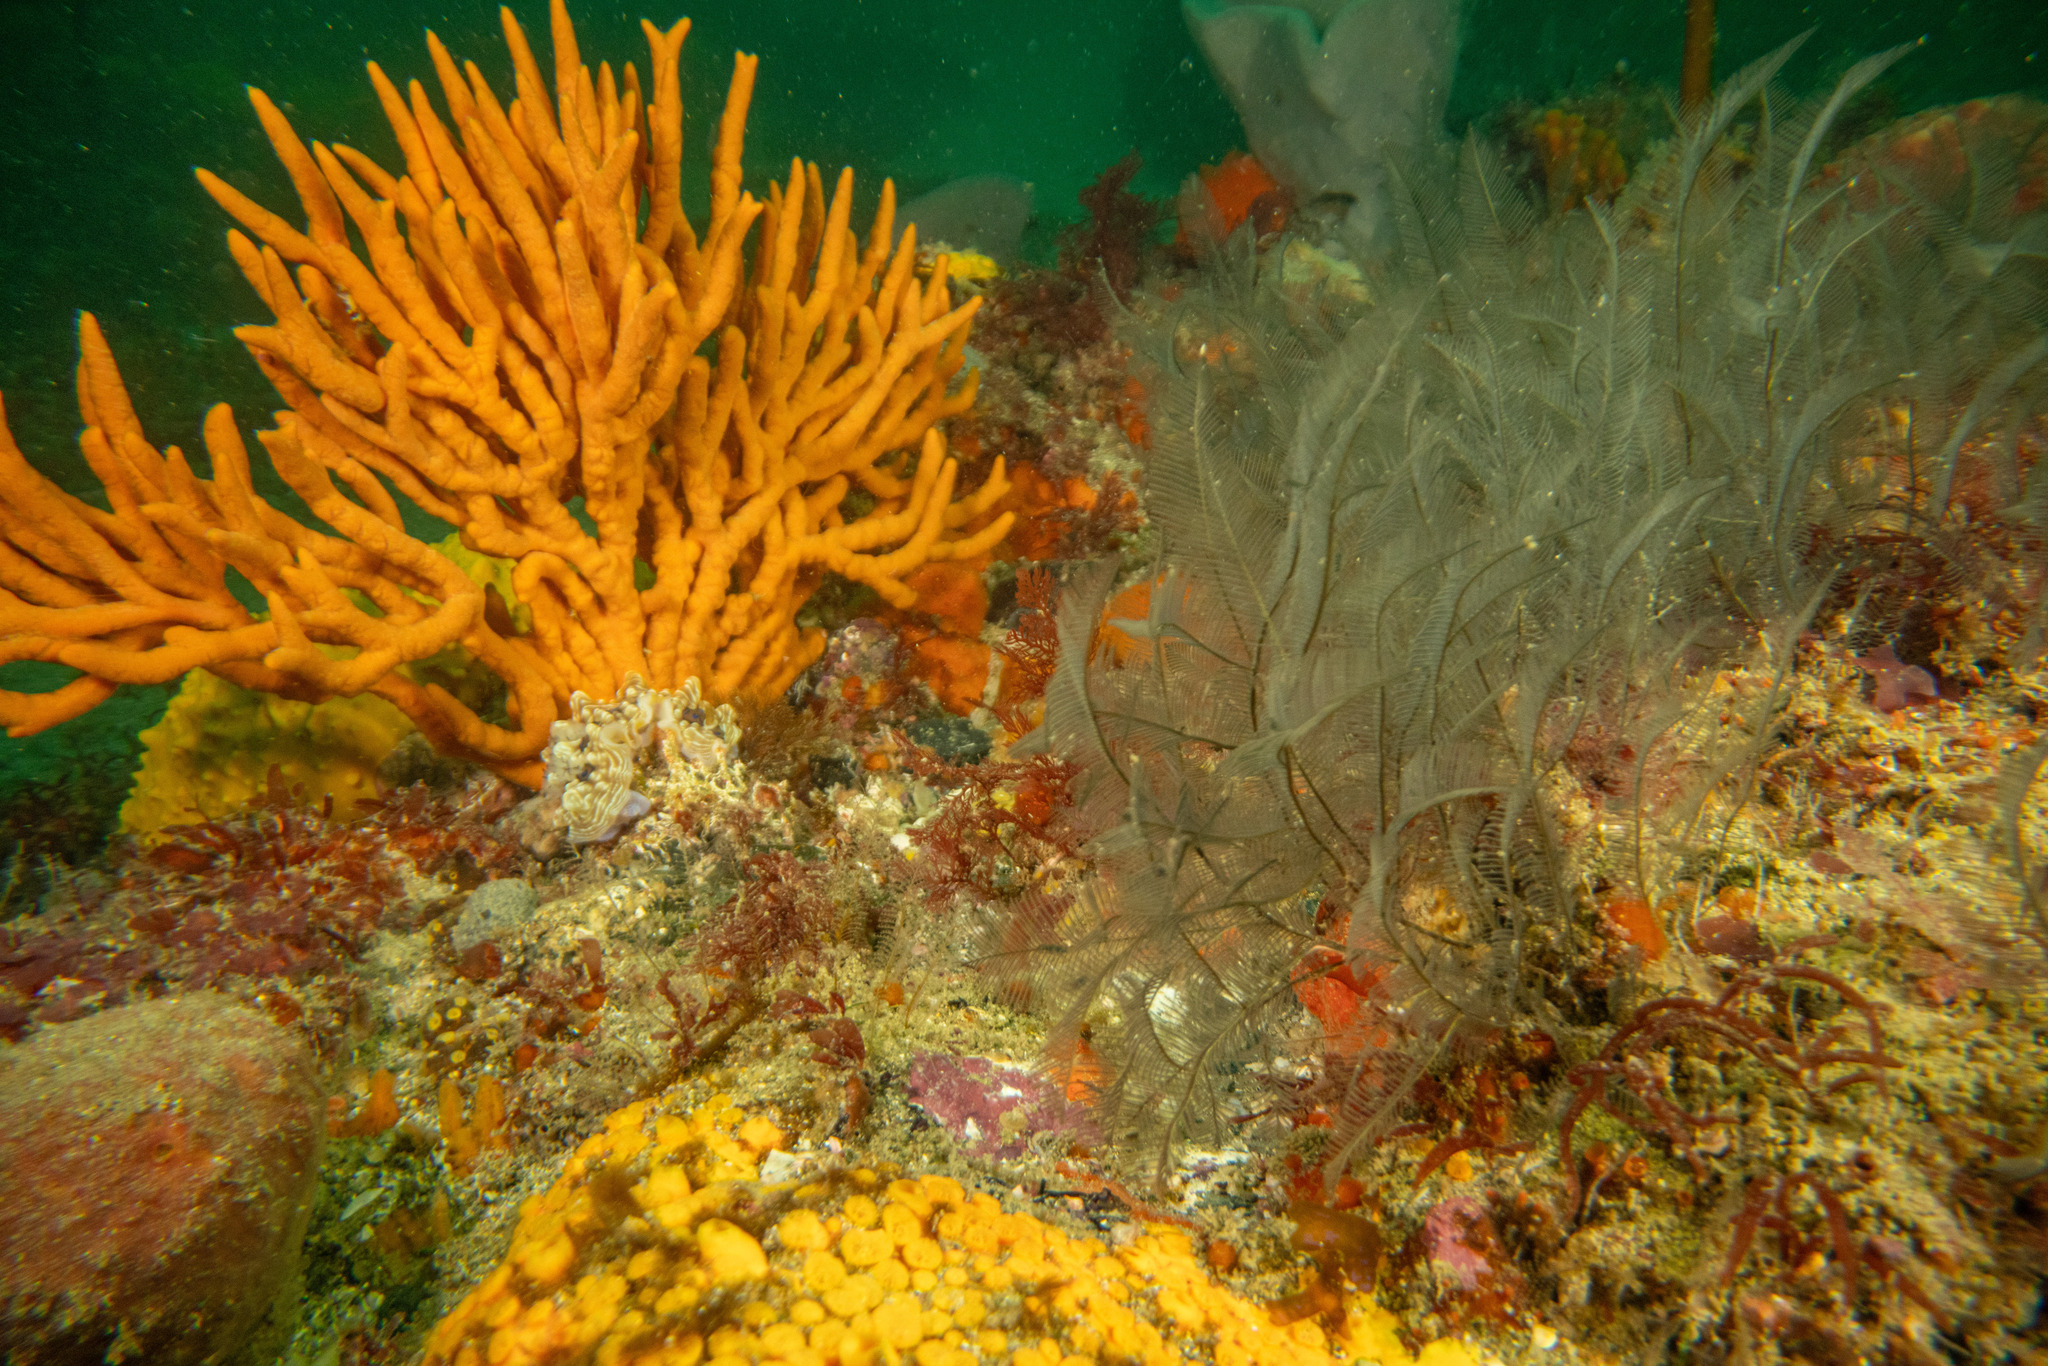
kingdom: Animalia
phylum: Porifera
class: Demospongiae
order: Axinellida
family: Axinellidae
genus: Pararhaphoxya
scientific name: Pararhaphoxya sinclairi
